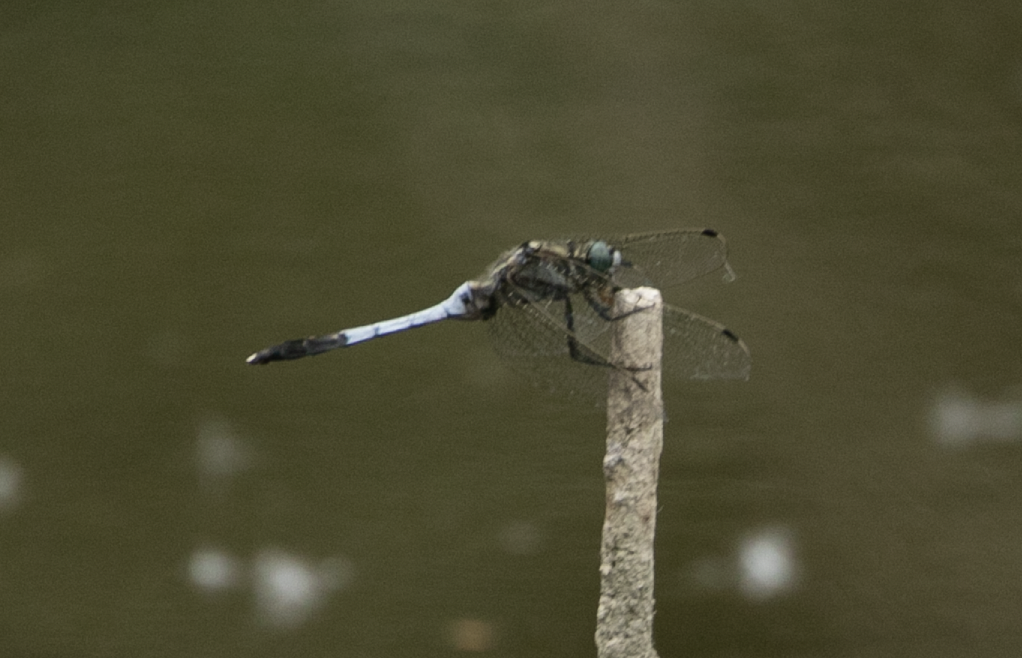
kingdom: Animalia
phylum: Arthropoda
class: Insecta
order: Odonata
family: Libellulidae
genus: Orthetrum
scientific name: Orthetrum albistylum
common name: White-tailed skimmer
